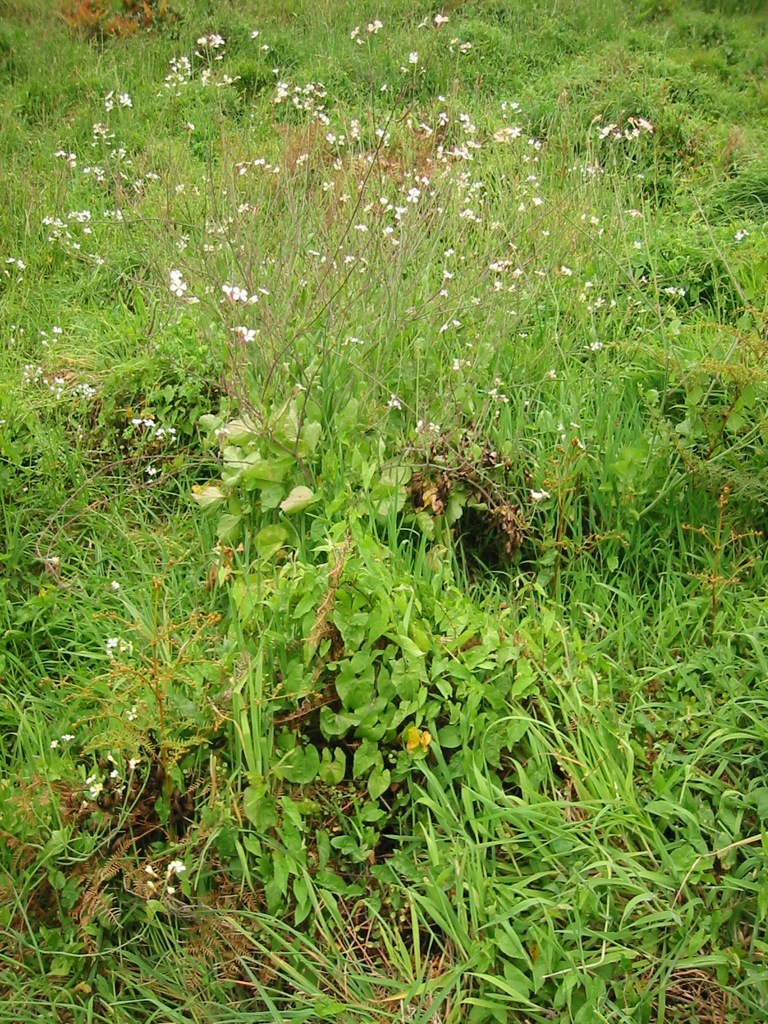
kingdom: Plantae
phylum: Tracheophyta
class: Magnoliopsida
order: Brassicales
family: Brassicaceae
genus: Raphanus
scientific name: Raphanus raphanistrum
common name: Wild radish
